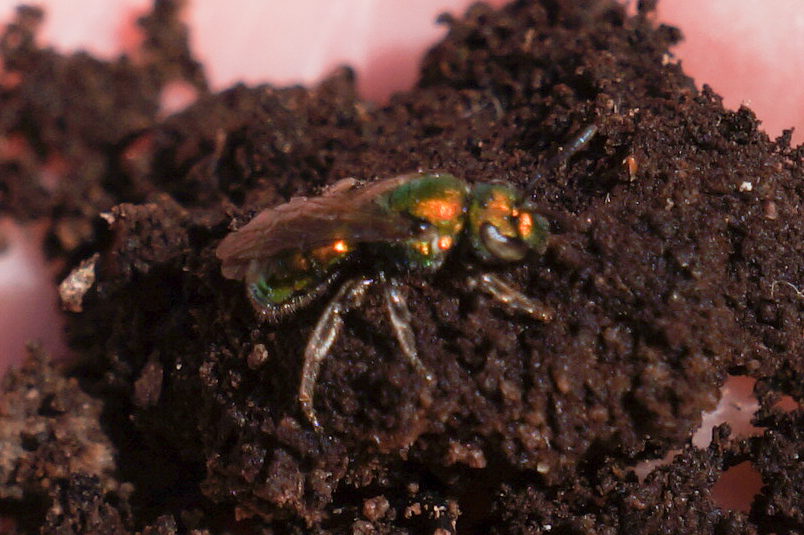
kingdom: Animalia
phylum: Arthropoda
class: Insecta
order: Hymenoptera
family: Halictidae
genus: Augochlora
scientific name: Augochlora pura
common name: Pure green sweat bee
